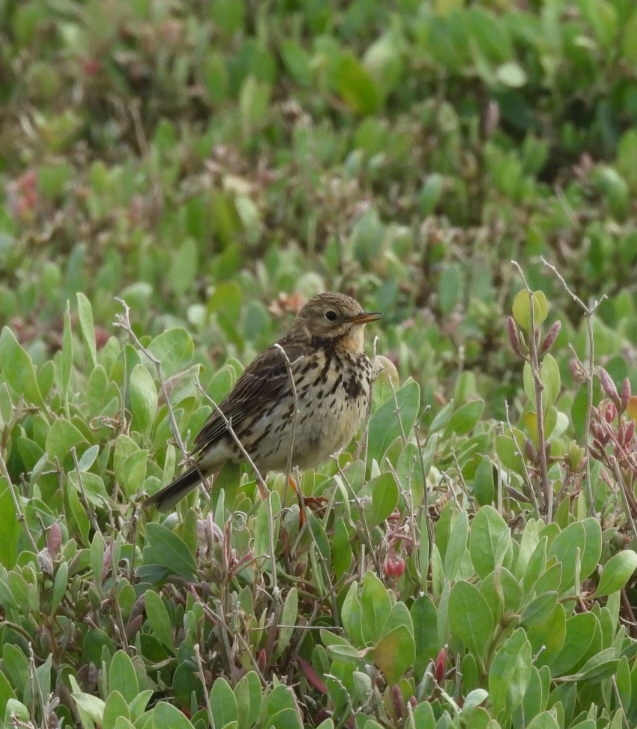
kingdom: Animalia
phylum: Chordata
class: Aves
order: Passeriformes
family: Motacillidae
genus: Anthus
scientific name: Anthus pratensis
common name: Meadow pipit
